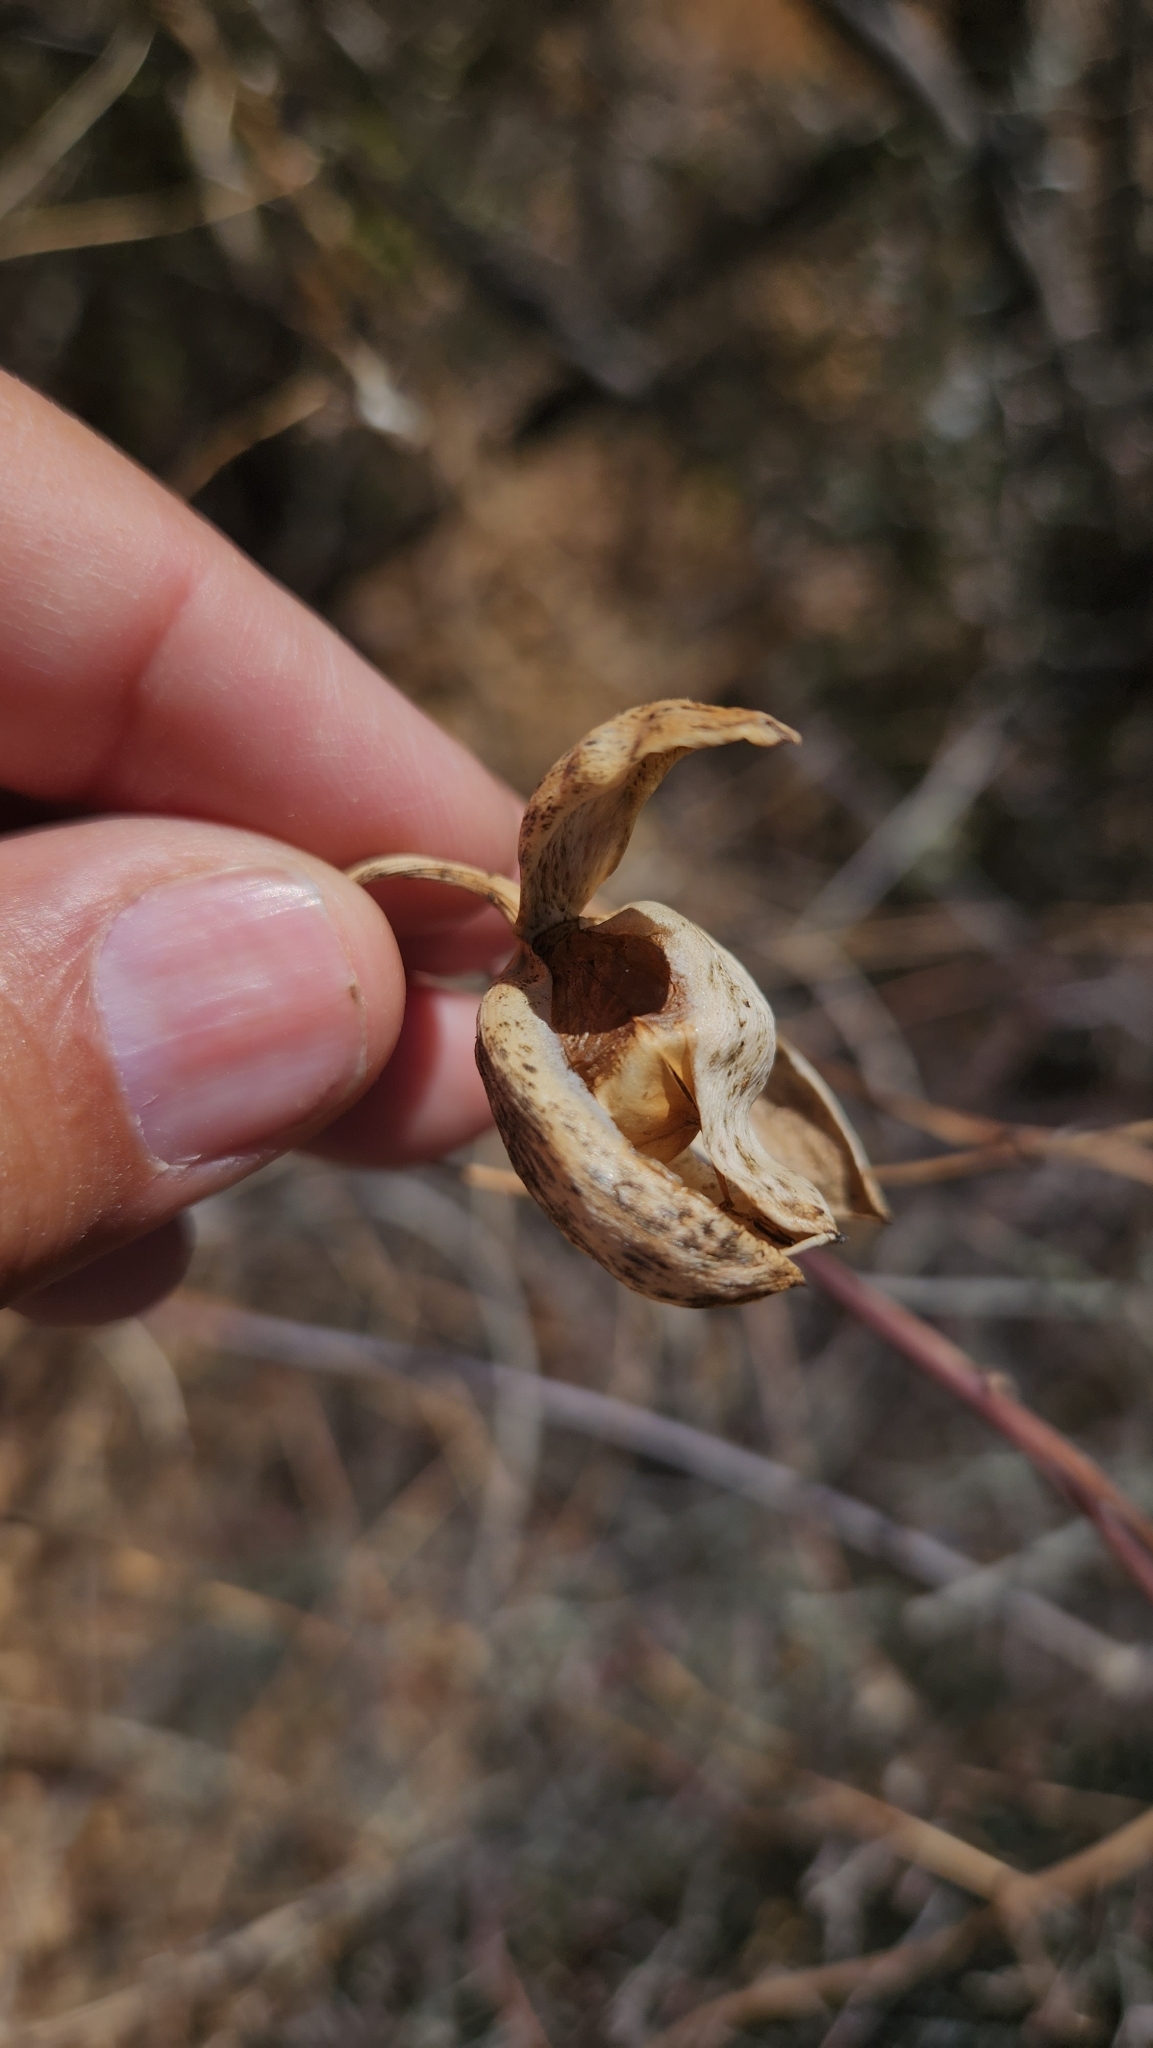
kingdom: Plantae
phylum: Tracheophyta
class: Magnoliopsida
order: Solanales
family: Convolvulaceae
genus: Distimake
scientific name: Distimake aureus
